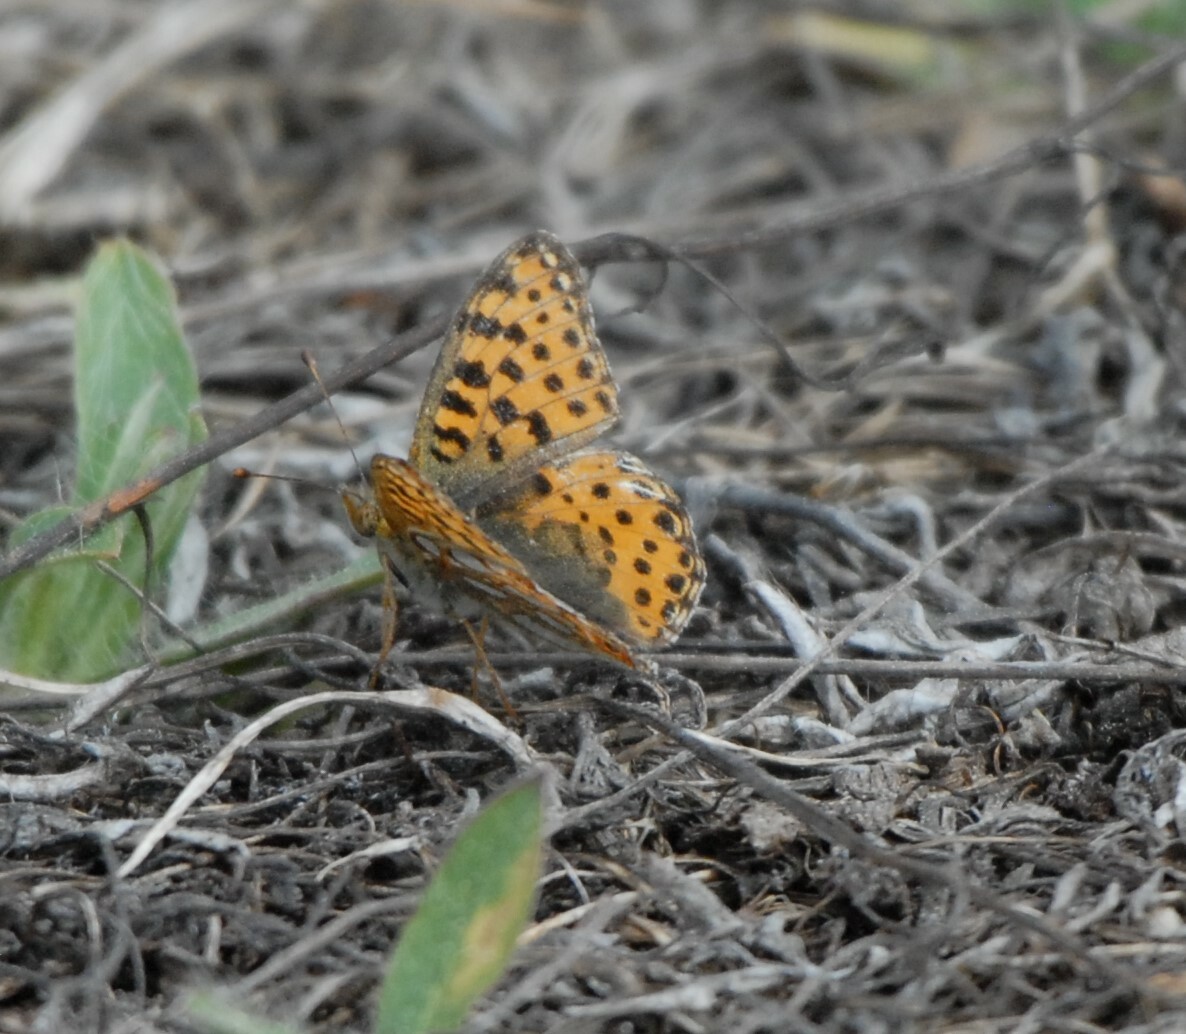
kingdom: Animalia
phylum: Arthropoda
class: Insecta
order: Lepidoptera
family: Nymphalidae
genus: Issoria
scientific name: Issoria lathonia
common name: Queen of spain fritillary
